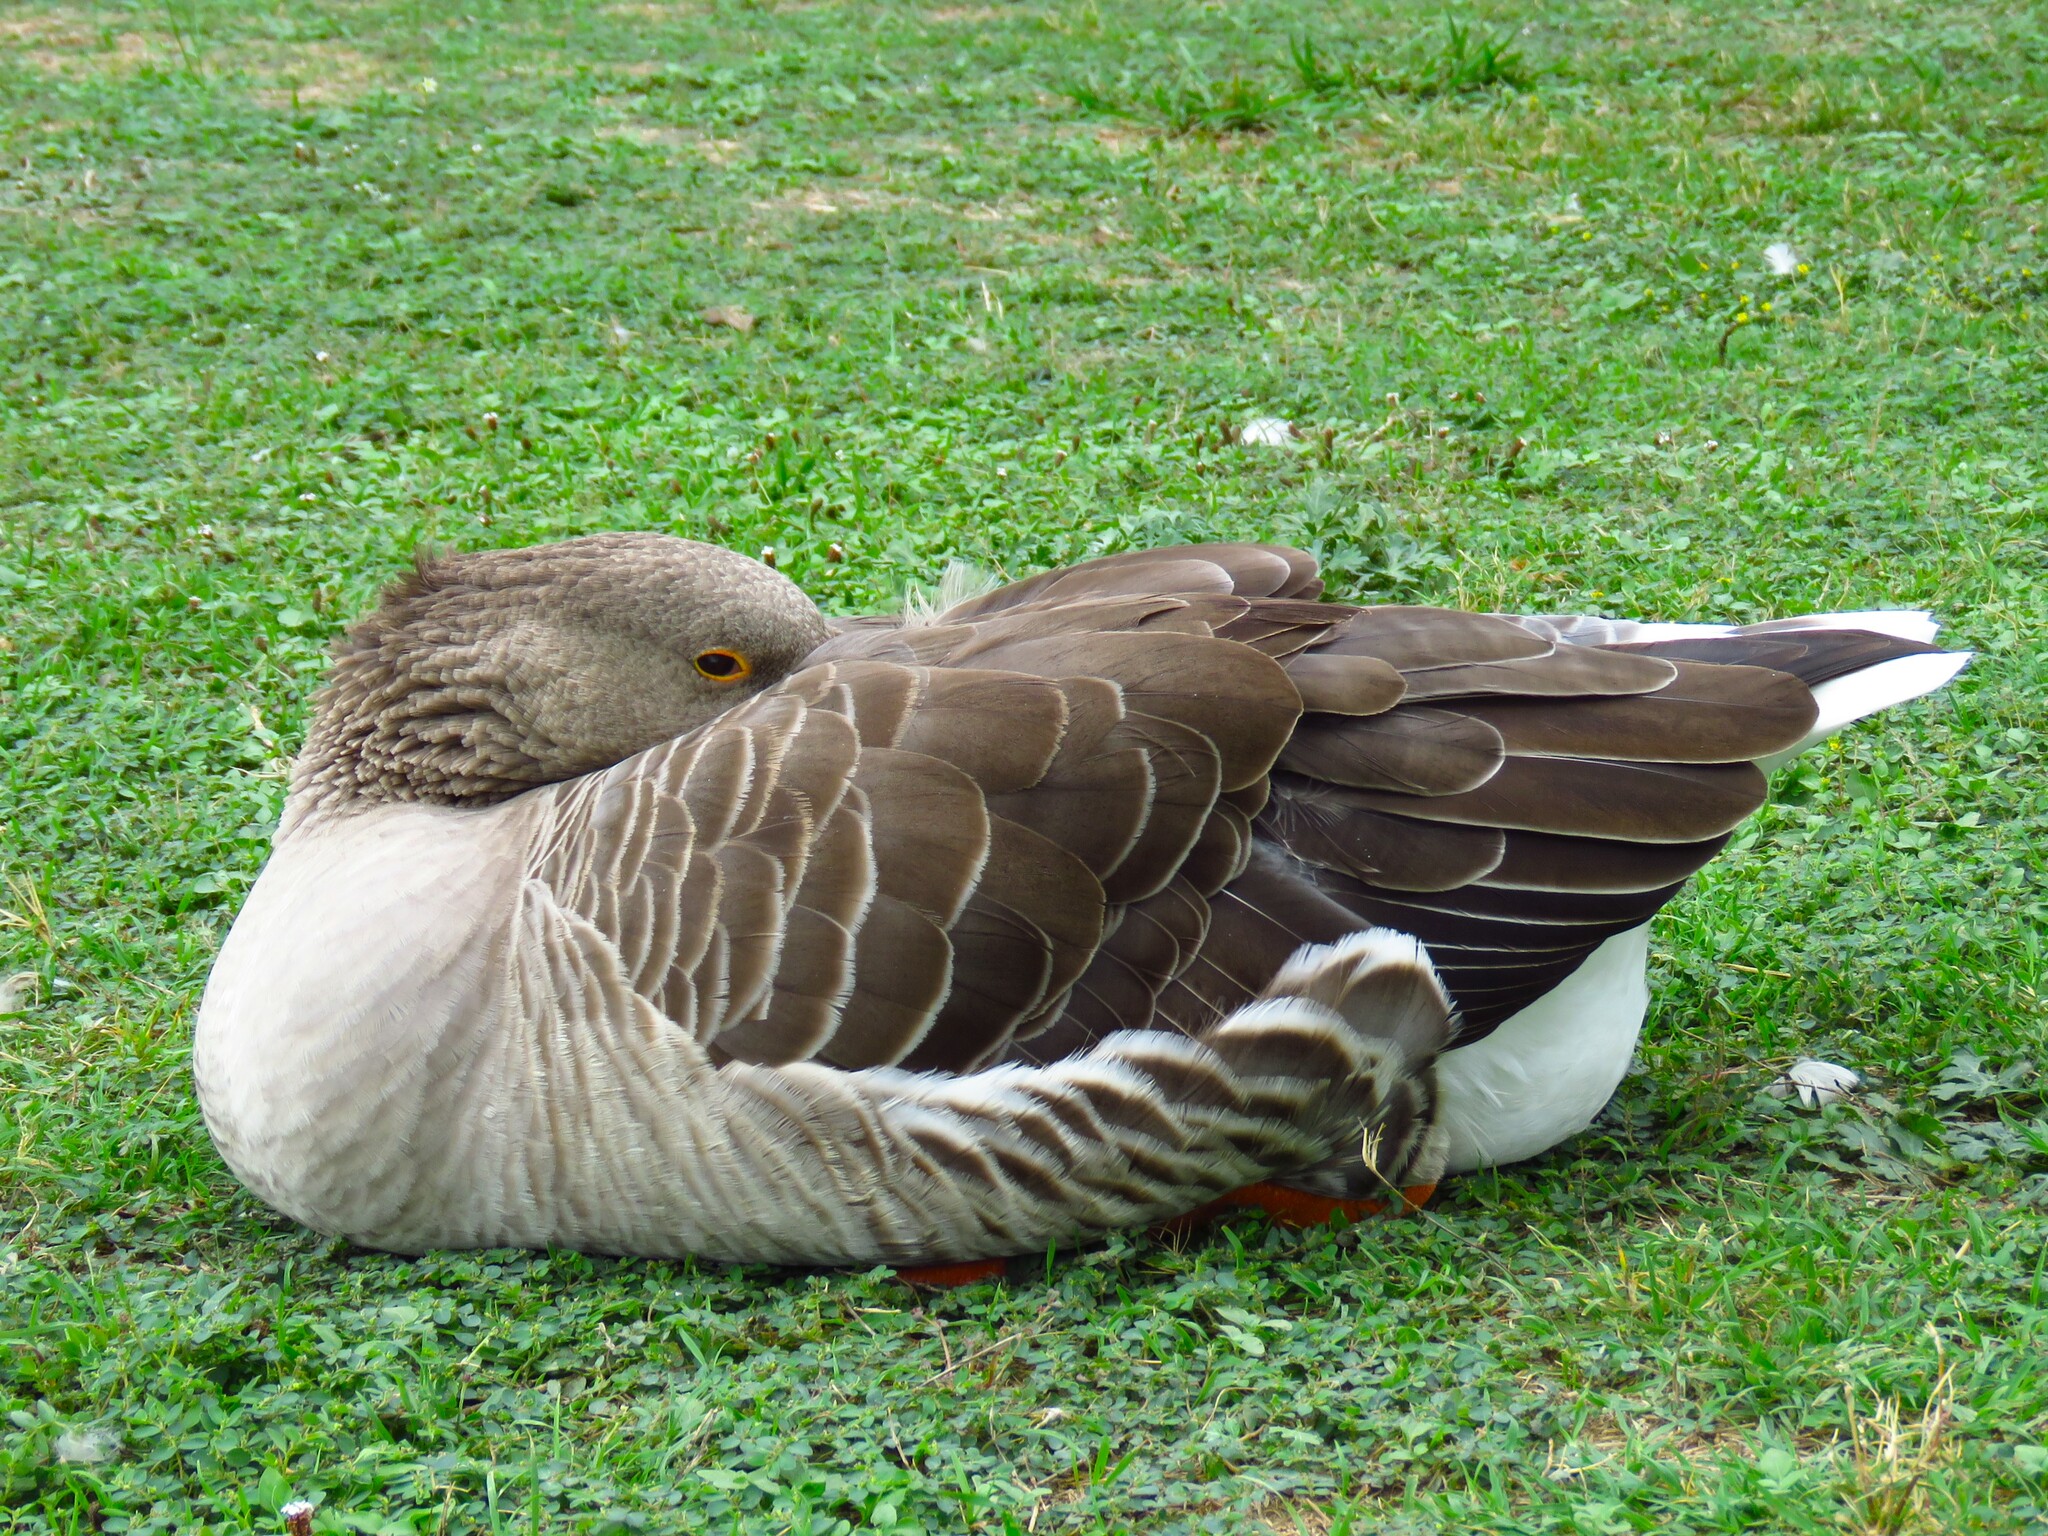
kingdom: Animalia
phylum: Chordata
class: Aves
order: Anseriformes
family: Anatidae
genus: Anser
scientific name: Anser anser
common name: Greylag goose
